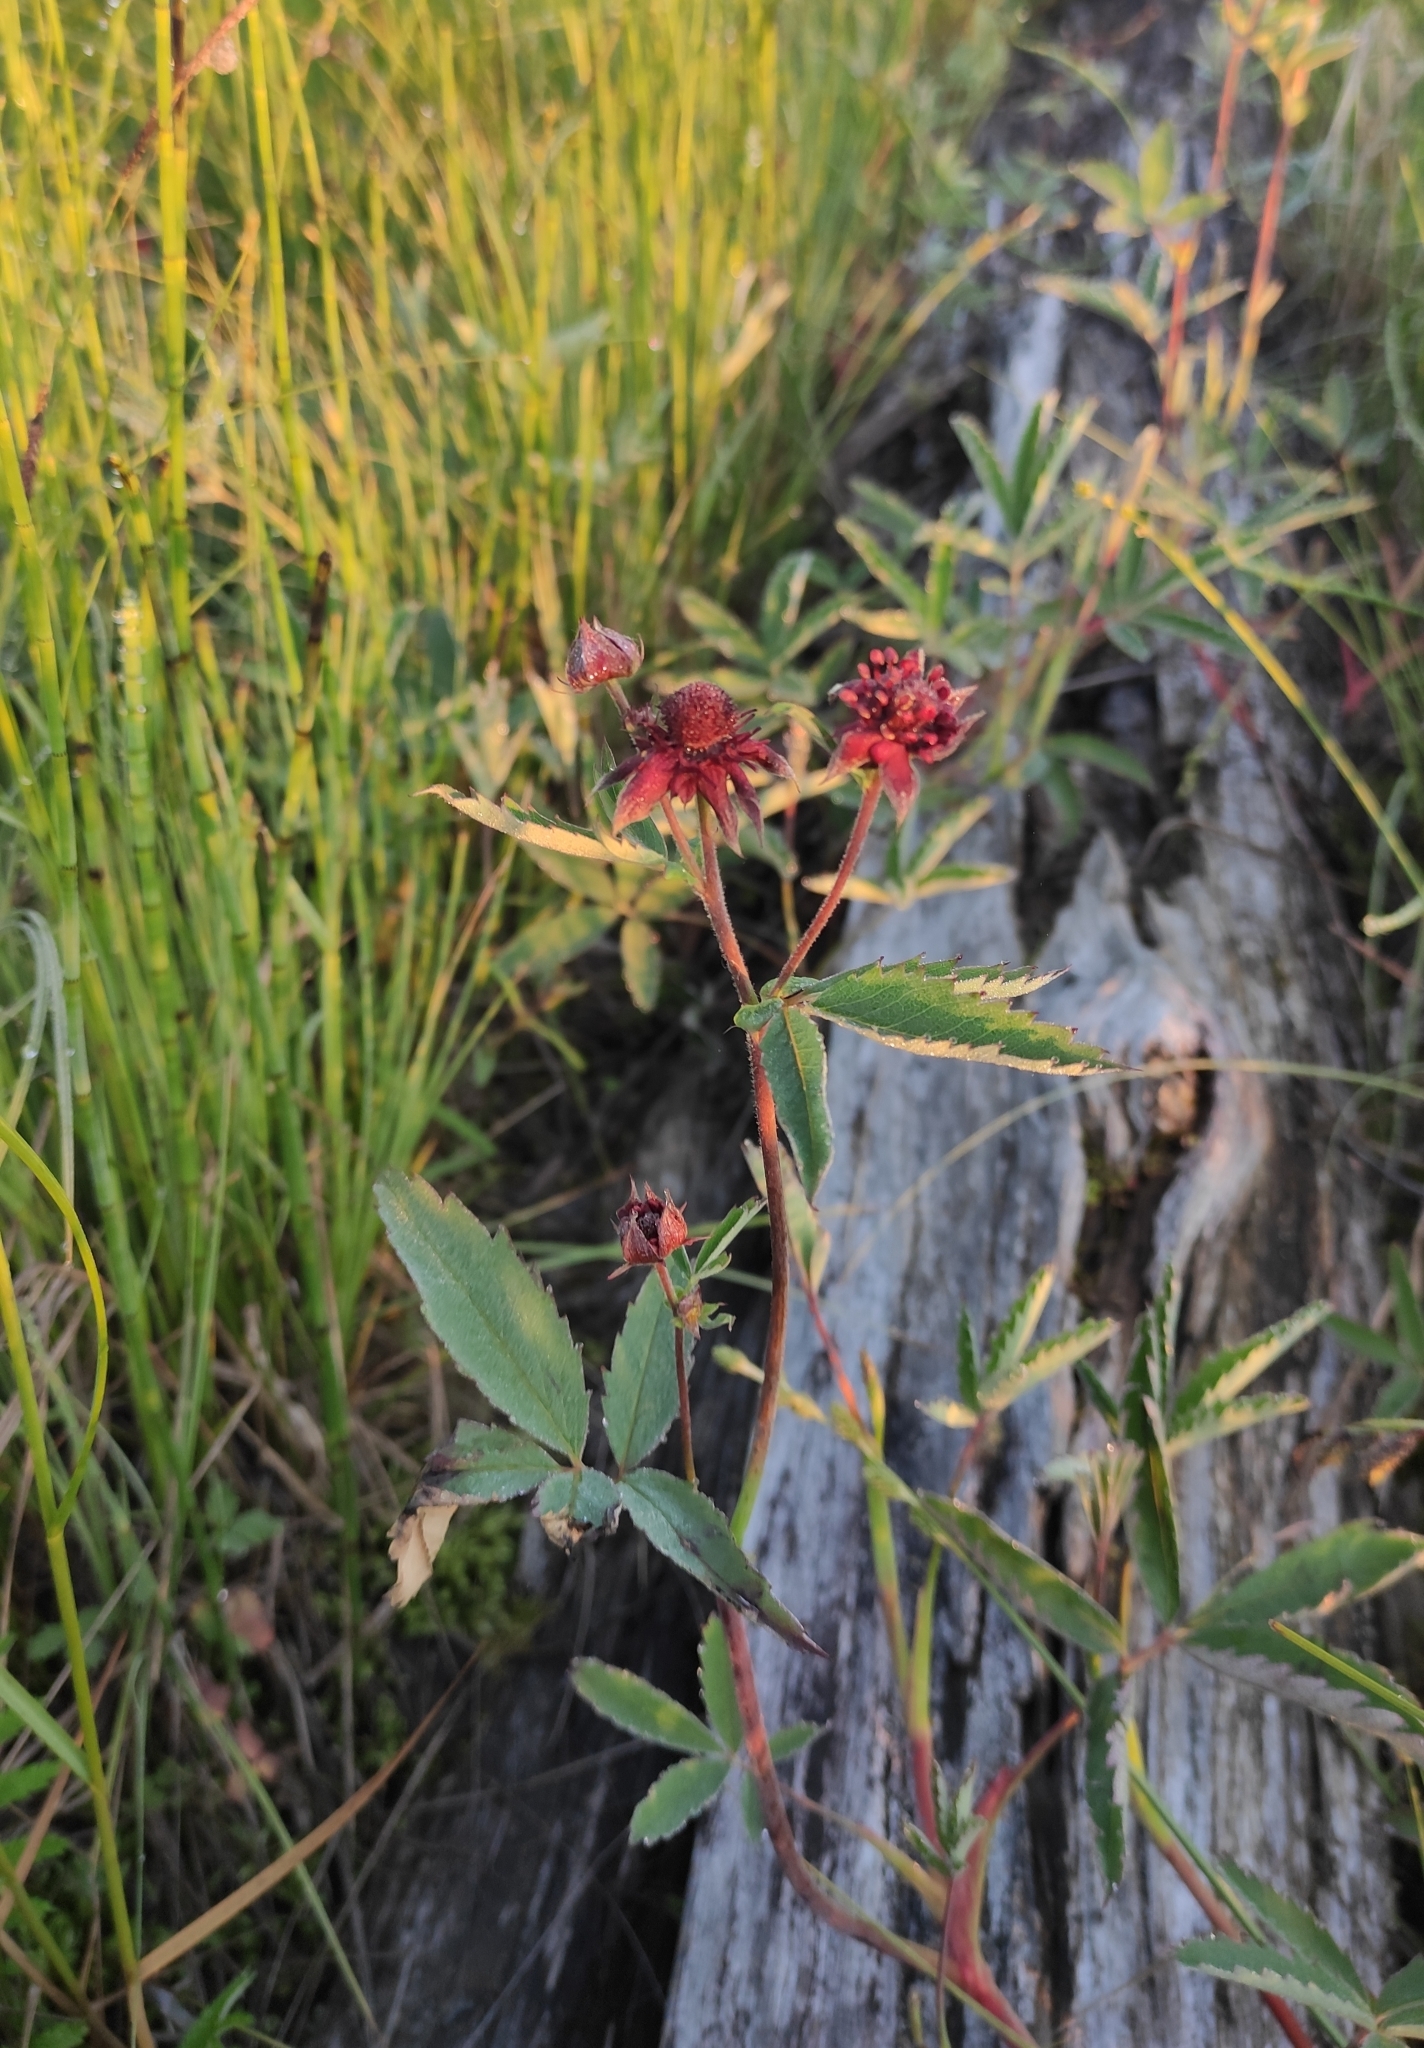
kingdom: Plantae
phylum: Tracheophyta
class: Magnoliopsida
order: Rosales
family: Rosaceae
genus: Comarum
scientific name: Comarum palustre
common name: Marsh cinquefoil
